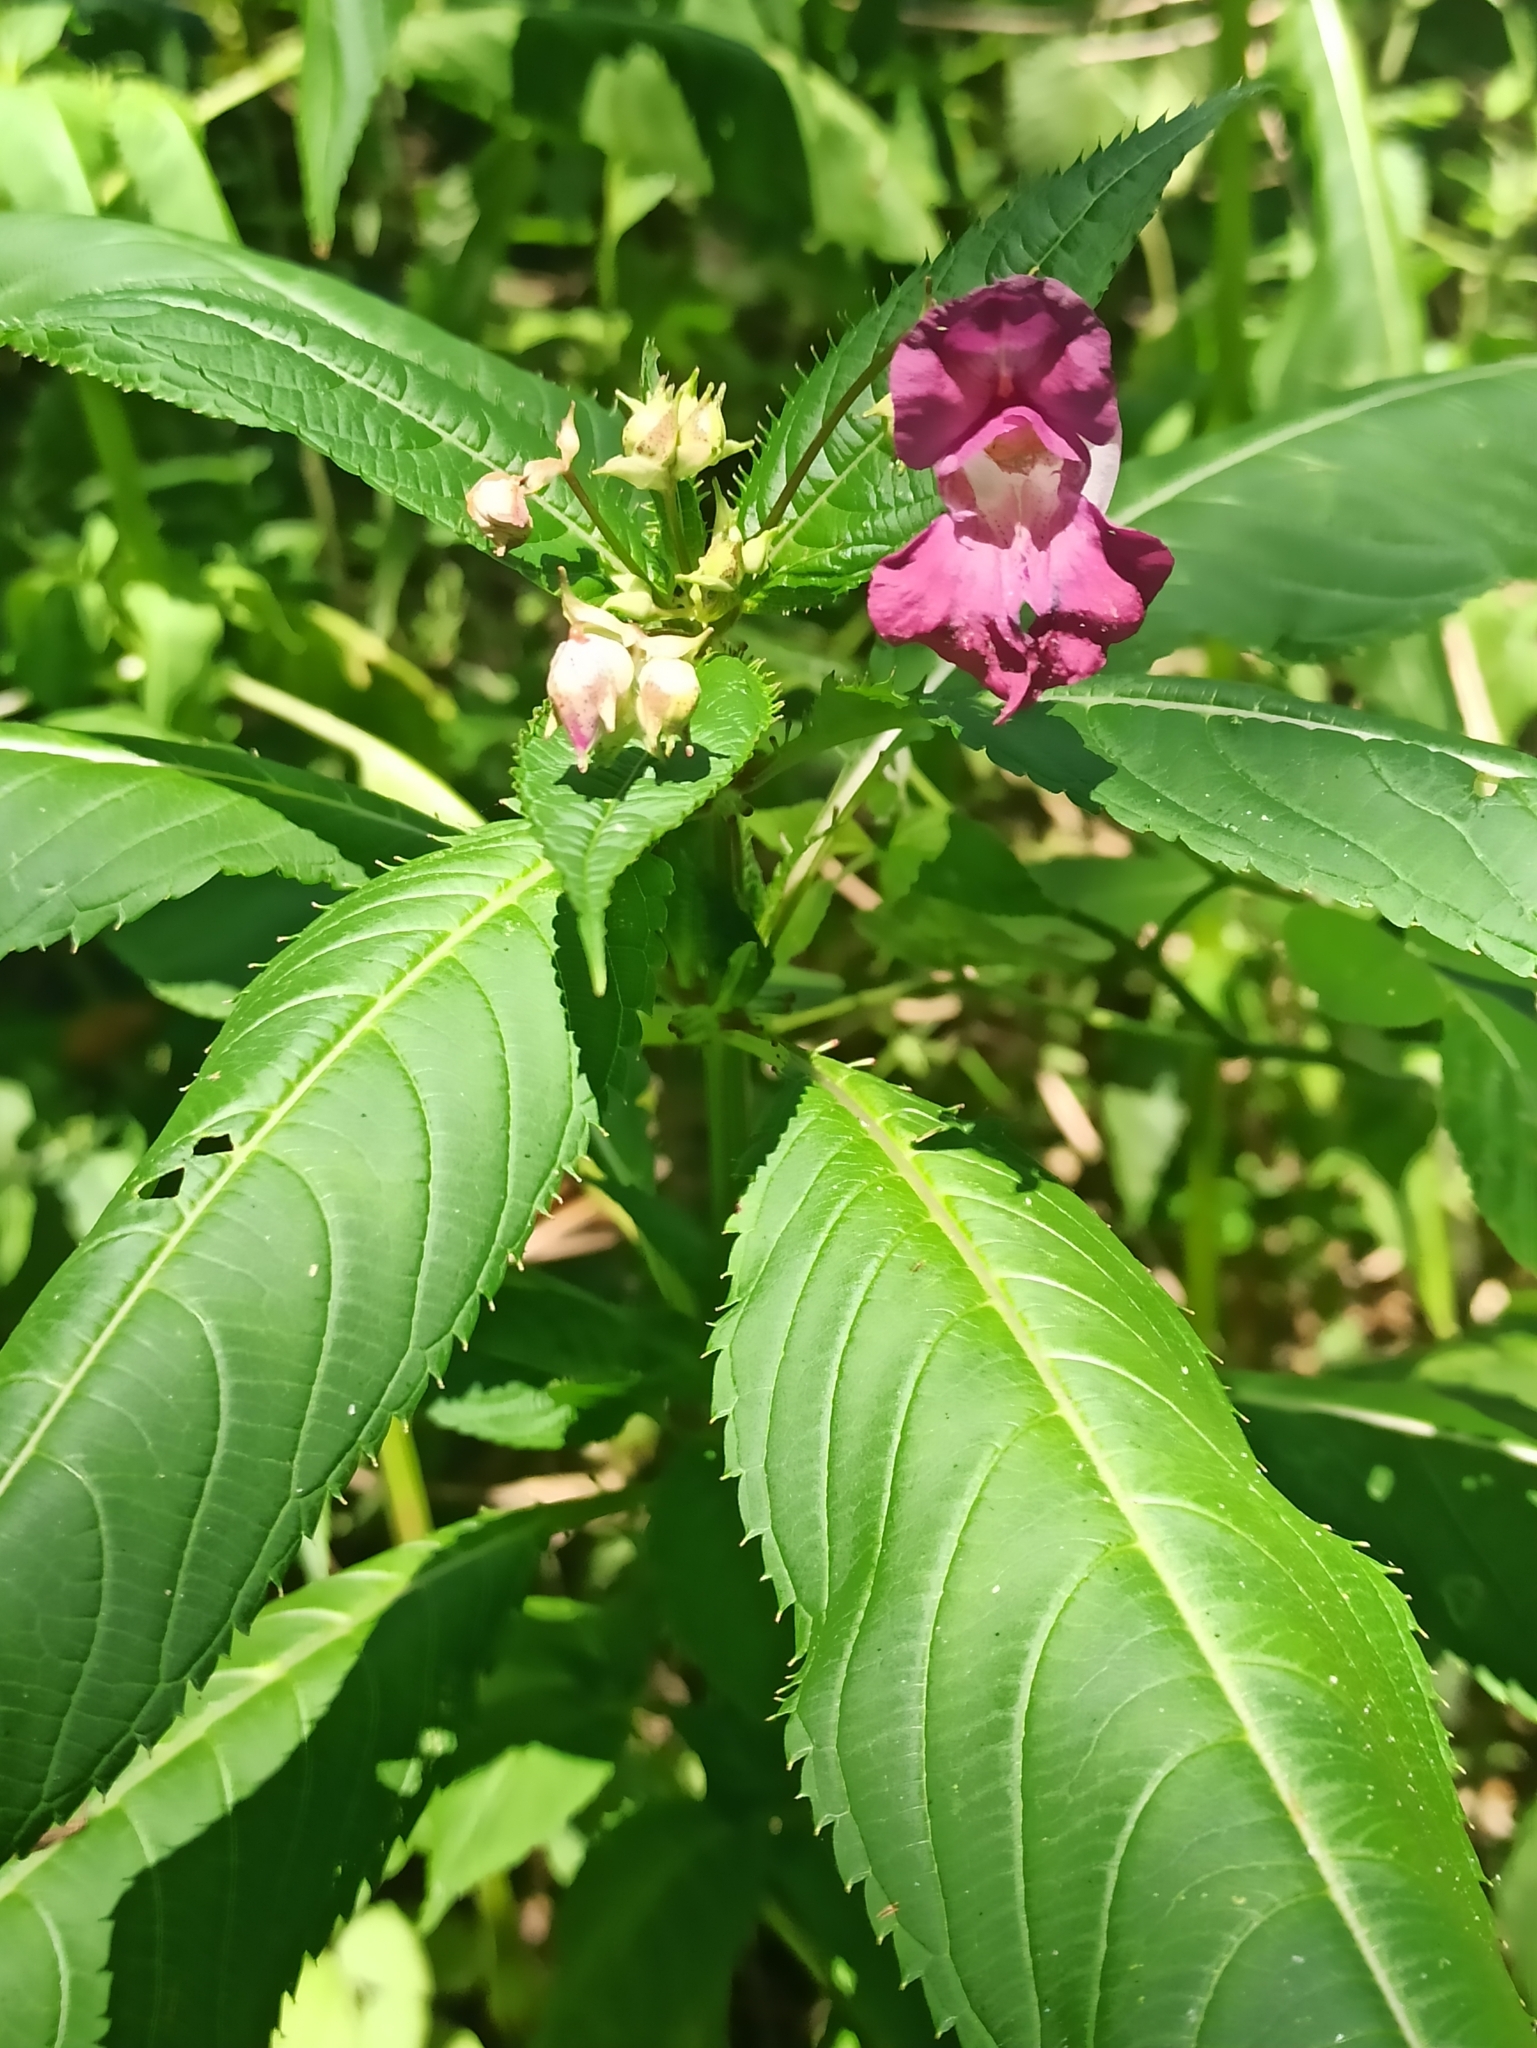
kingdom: Plantae
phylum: Tracheophyta
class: Magnoliopsida
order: Ericales
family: Balsaminaceae
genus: Impatiens
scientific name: Impatiens glandulifera
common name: Himalayan balsam
